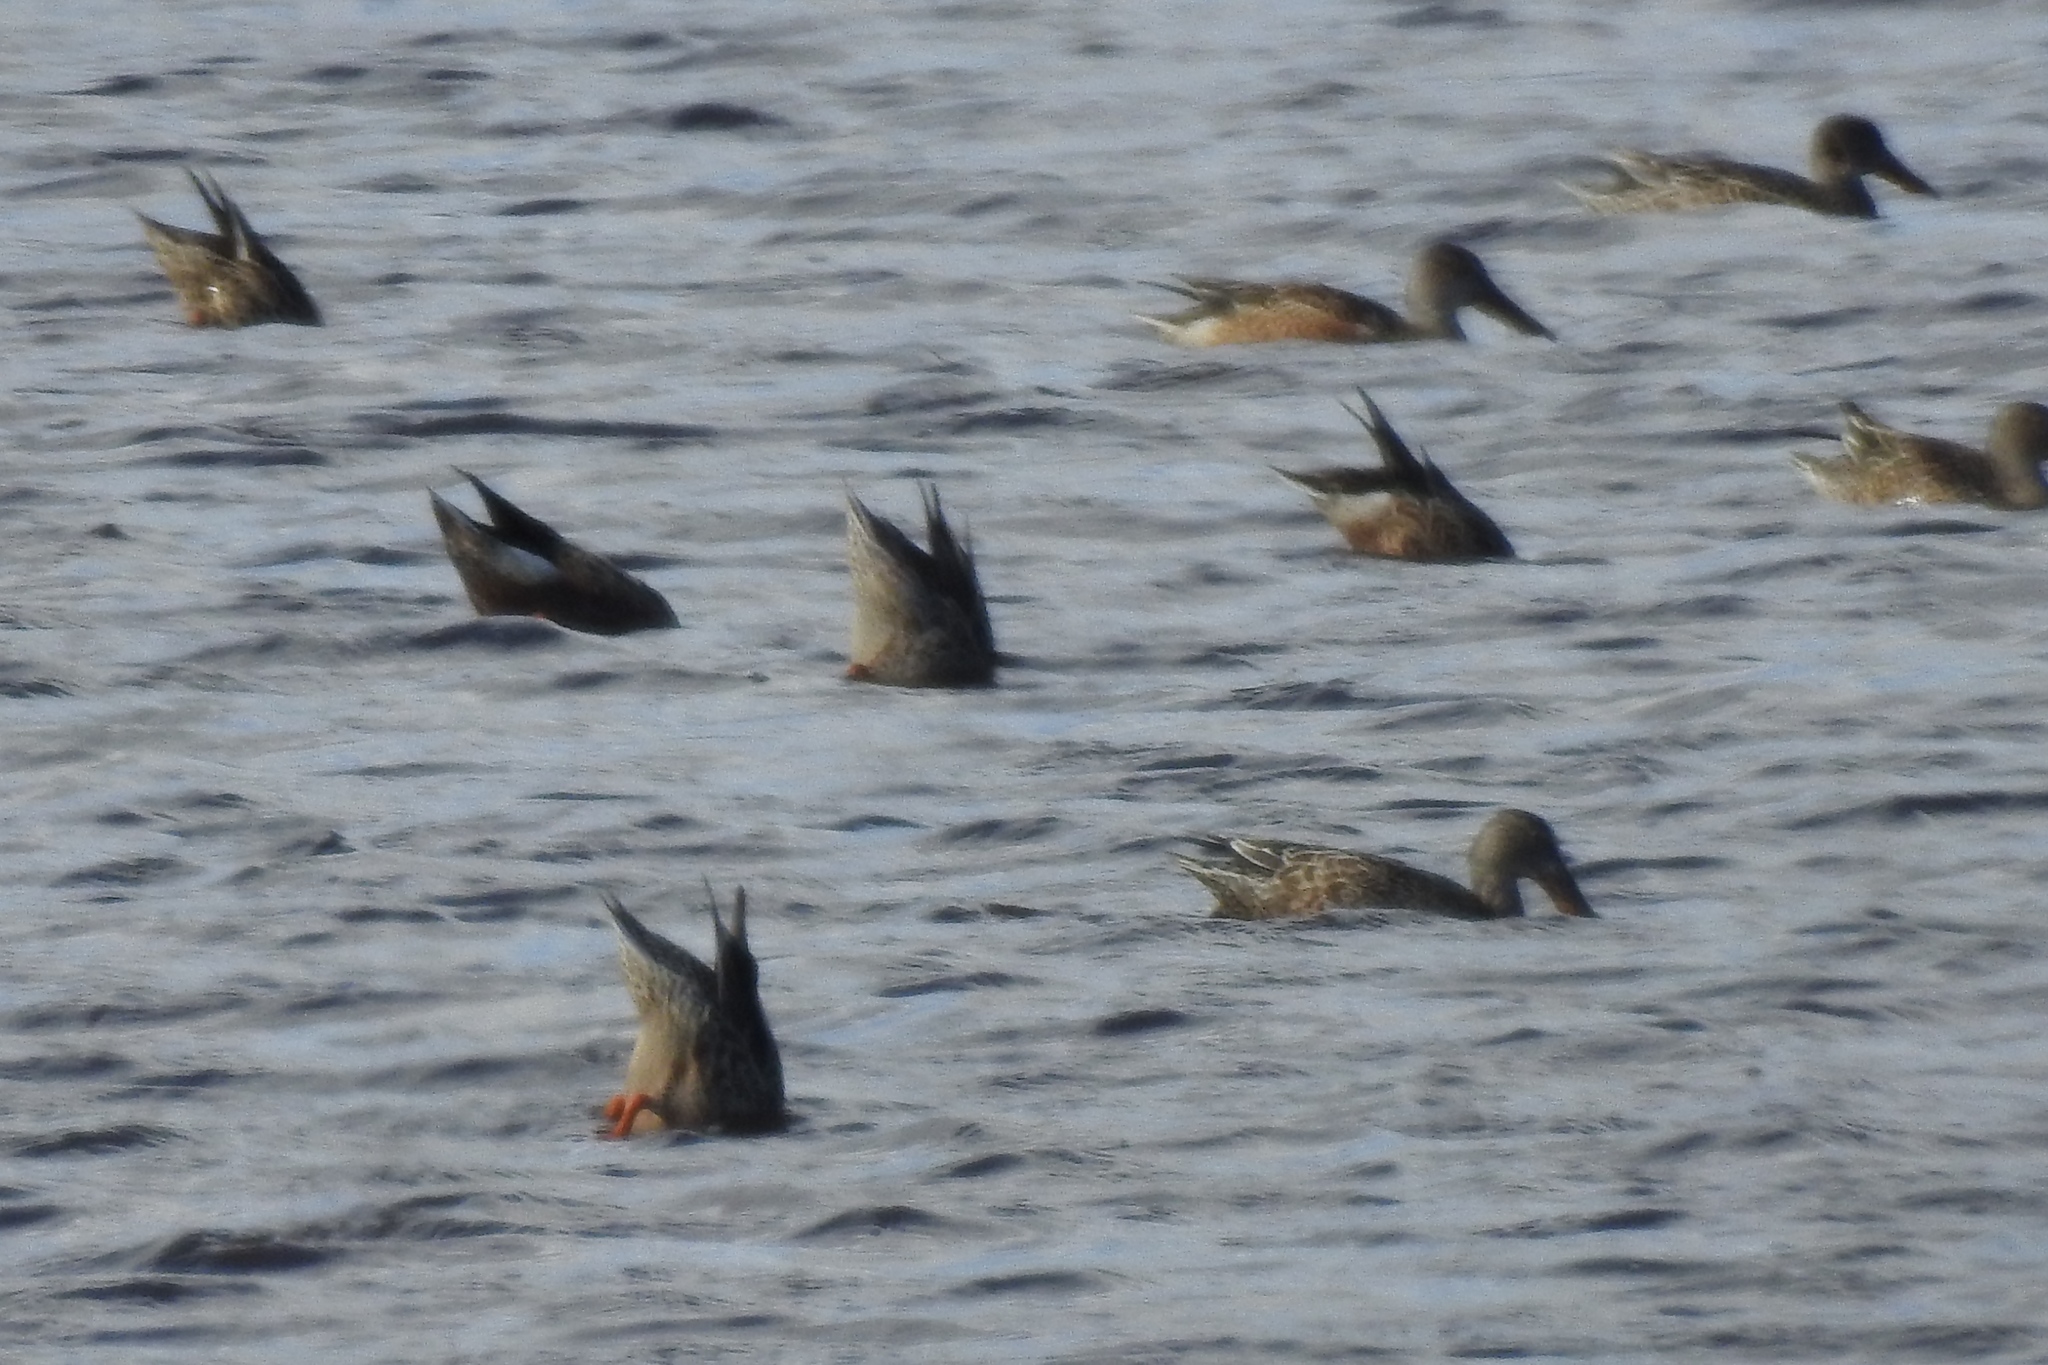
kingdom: Animalia
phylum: Chordata
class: Aves
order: Anseriformes
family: Anatidae
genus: Spatula
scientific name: Spatula clypeata
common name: Northern shoveler
